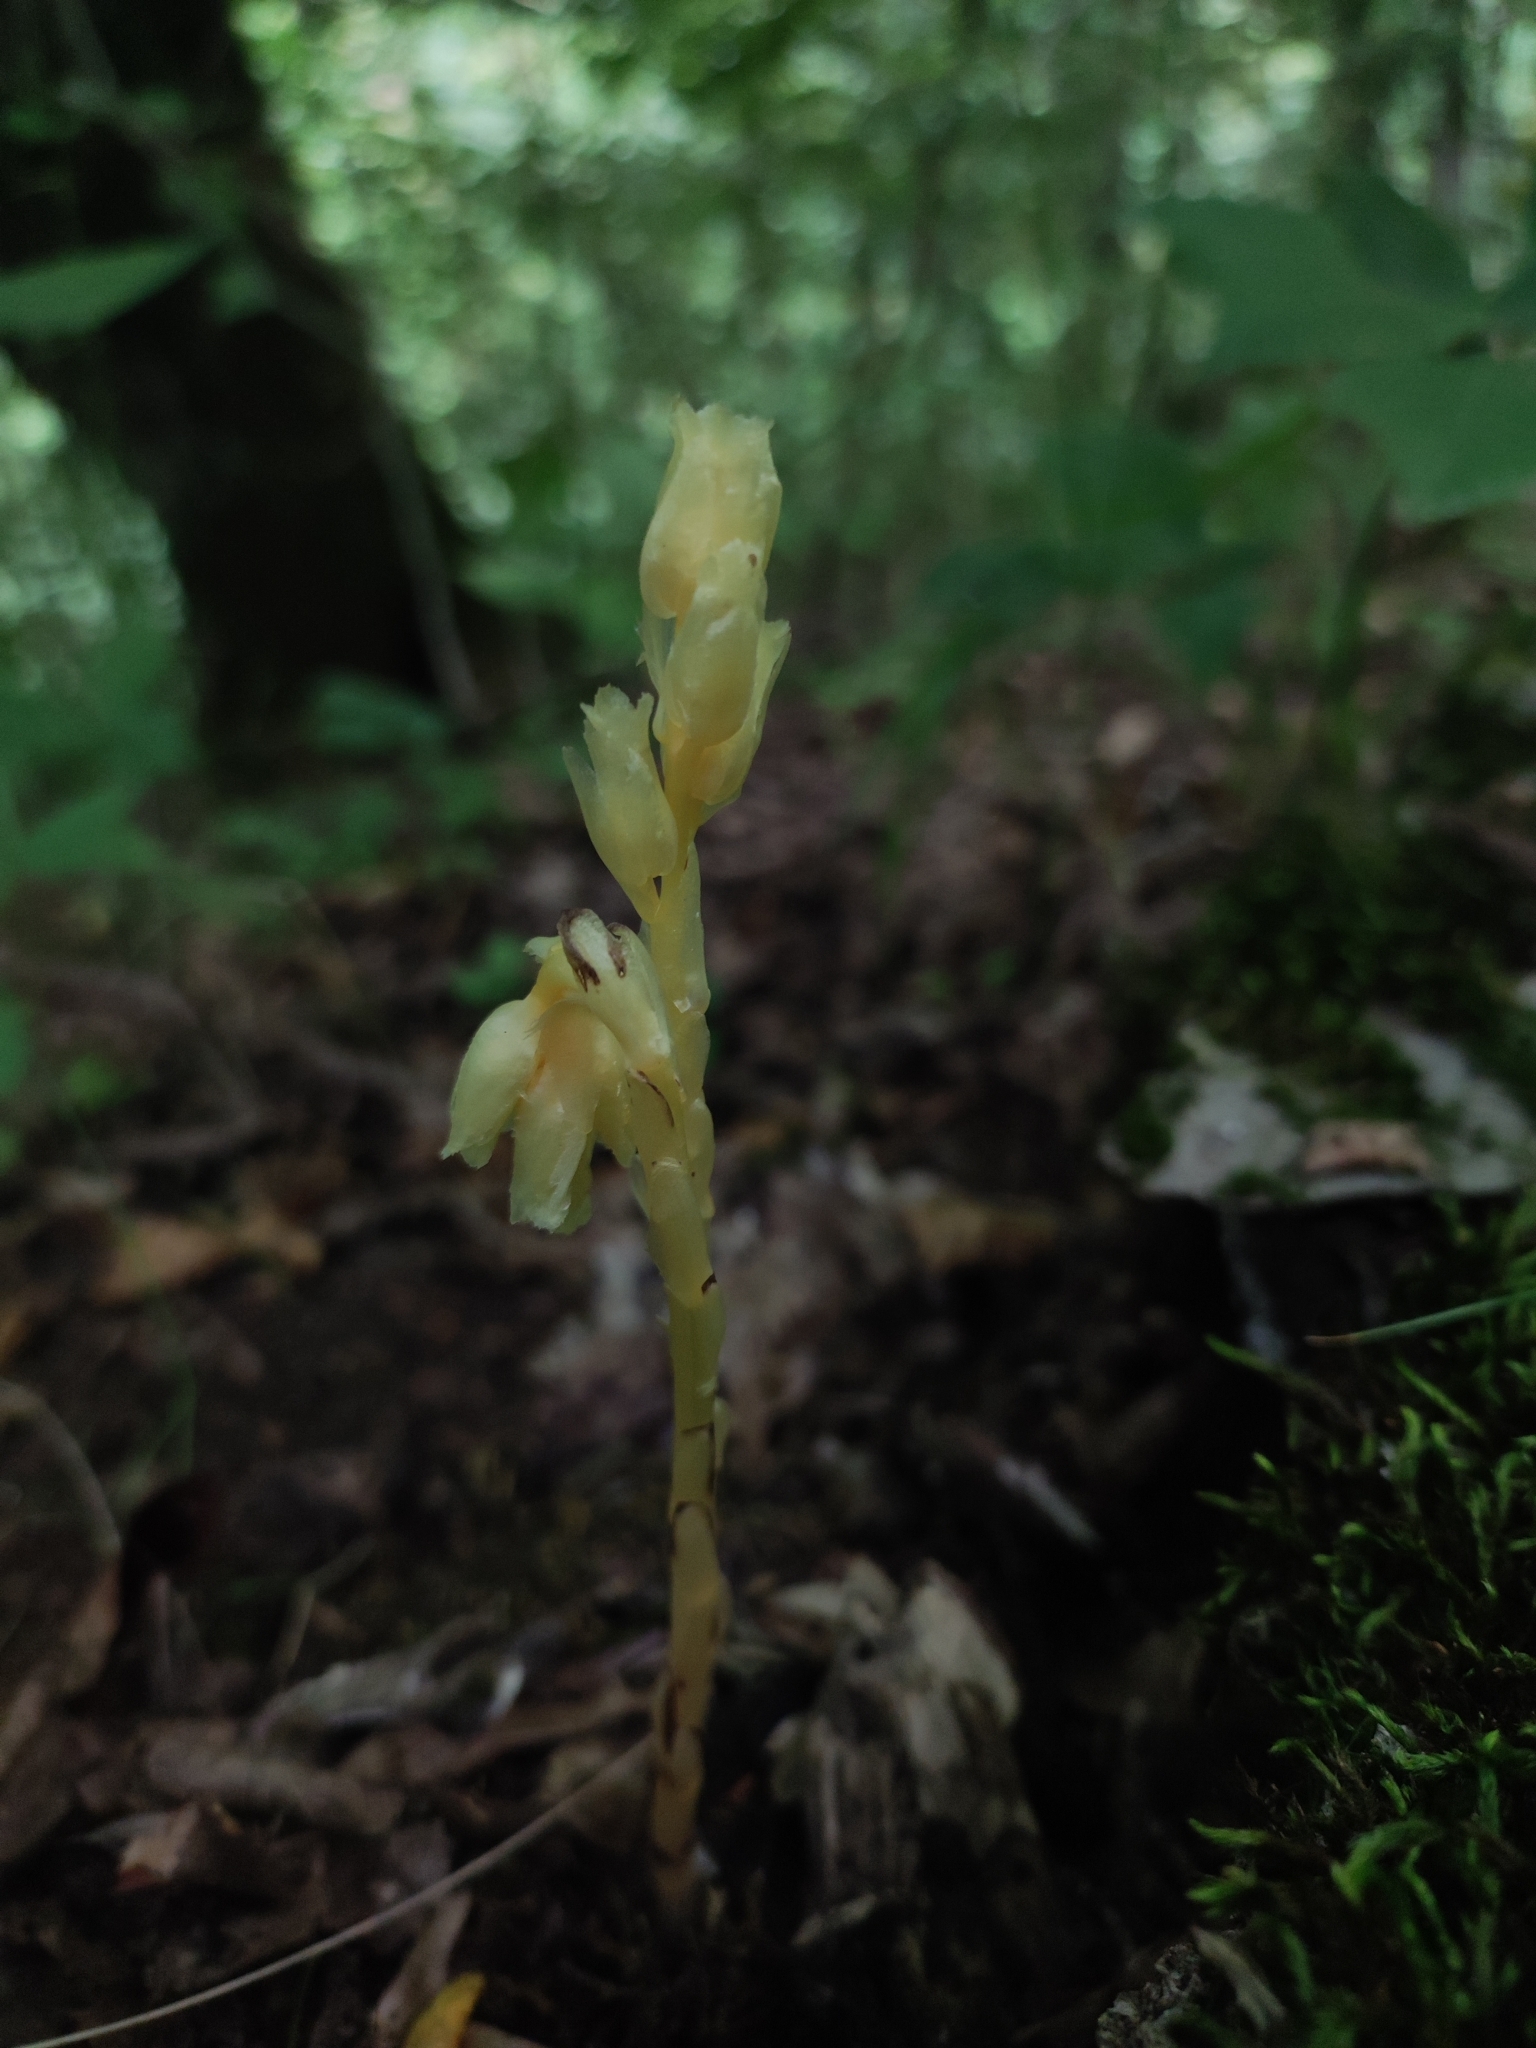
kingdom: Plantae
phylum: Tracheophyta
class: Magnoliopsida
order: Ericales
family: Ericaceae
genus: Hypopitys
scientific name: Hypopitys monotropa
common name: Yellow bird's-nest
